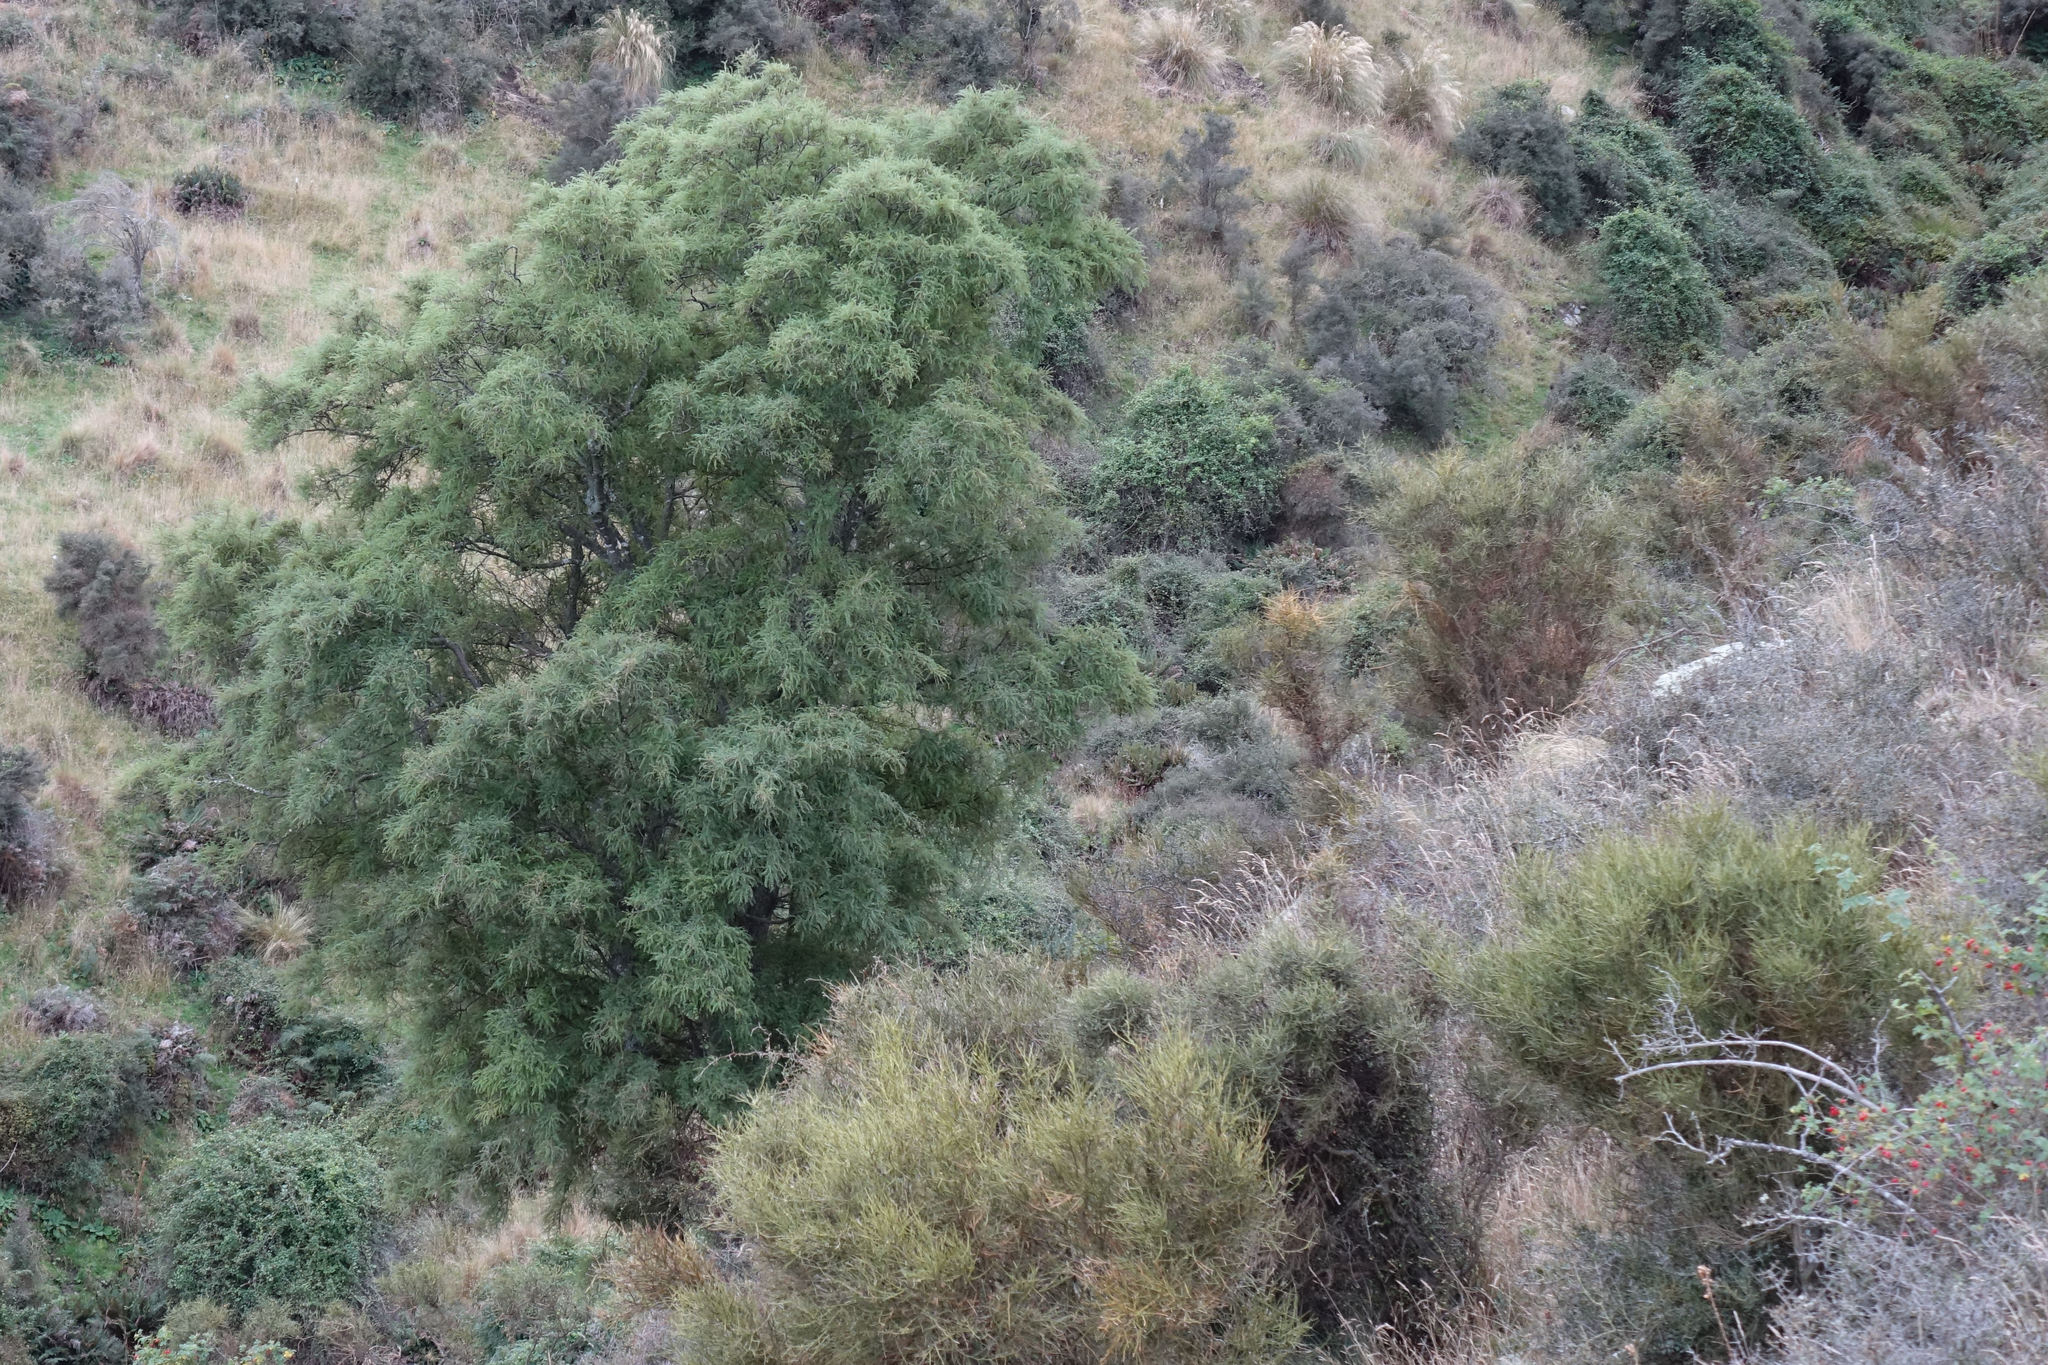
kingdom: Plantae
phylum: Tracheophyta
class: Magnoliopsida
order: Fabales
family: Fabaceae
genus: Sophora
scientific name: Sophora microphylla
